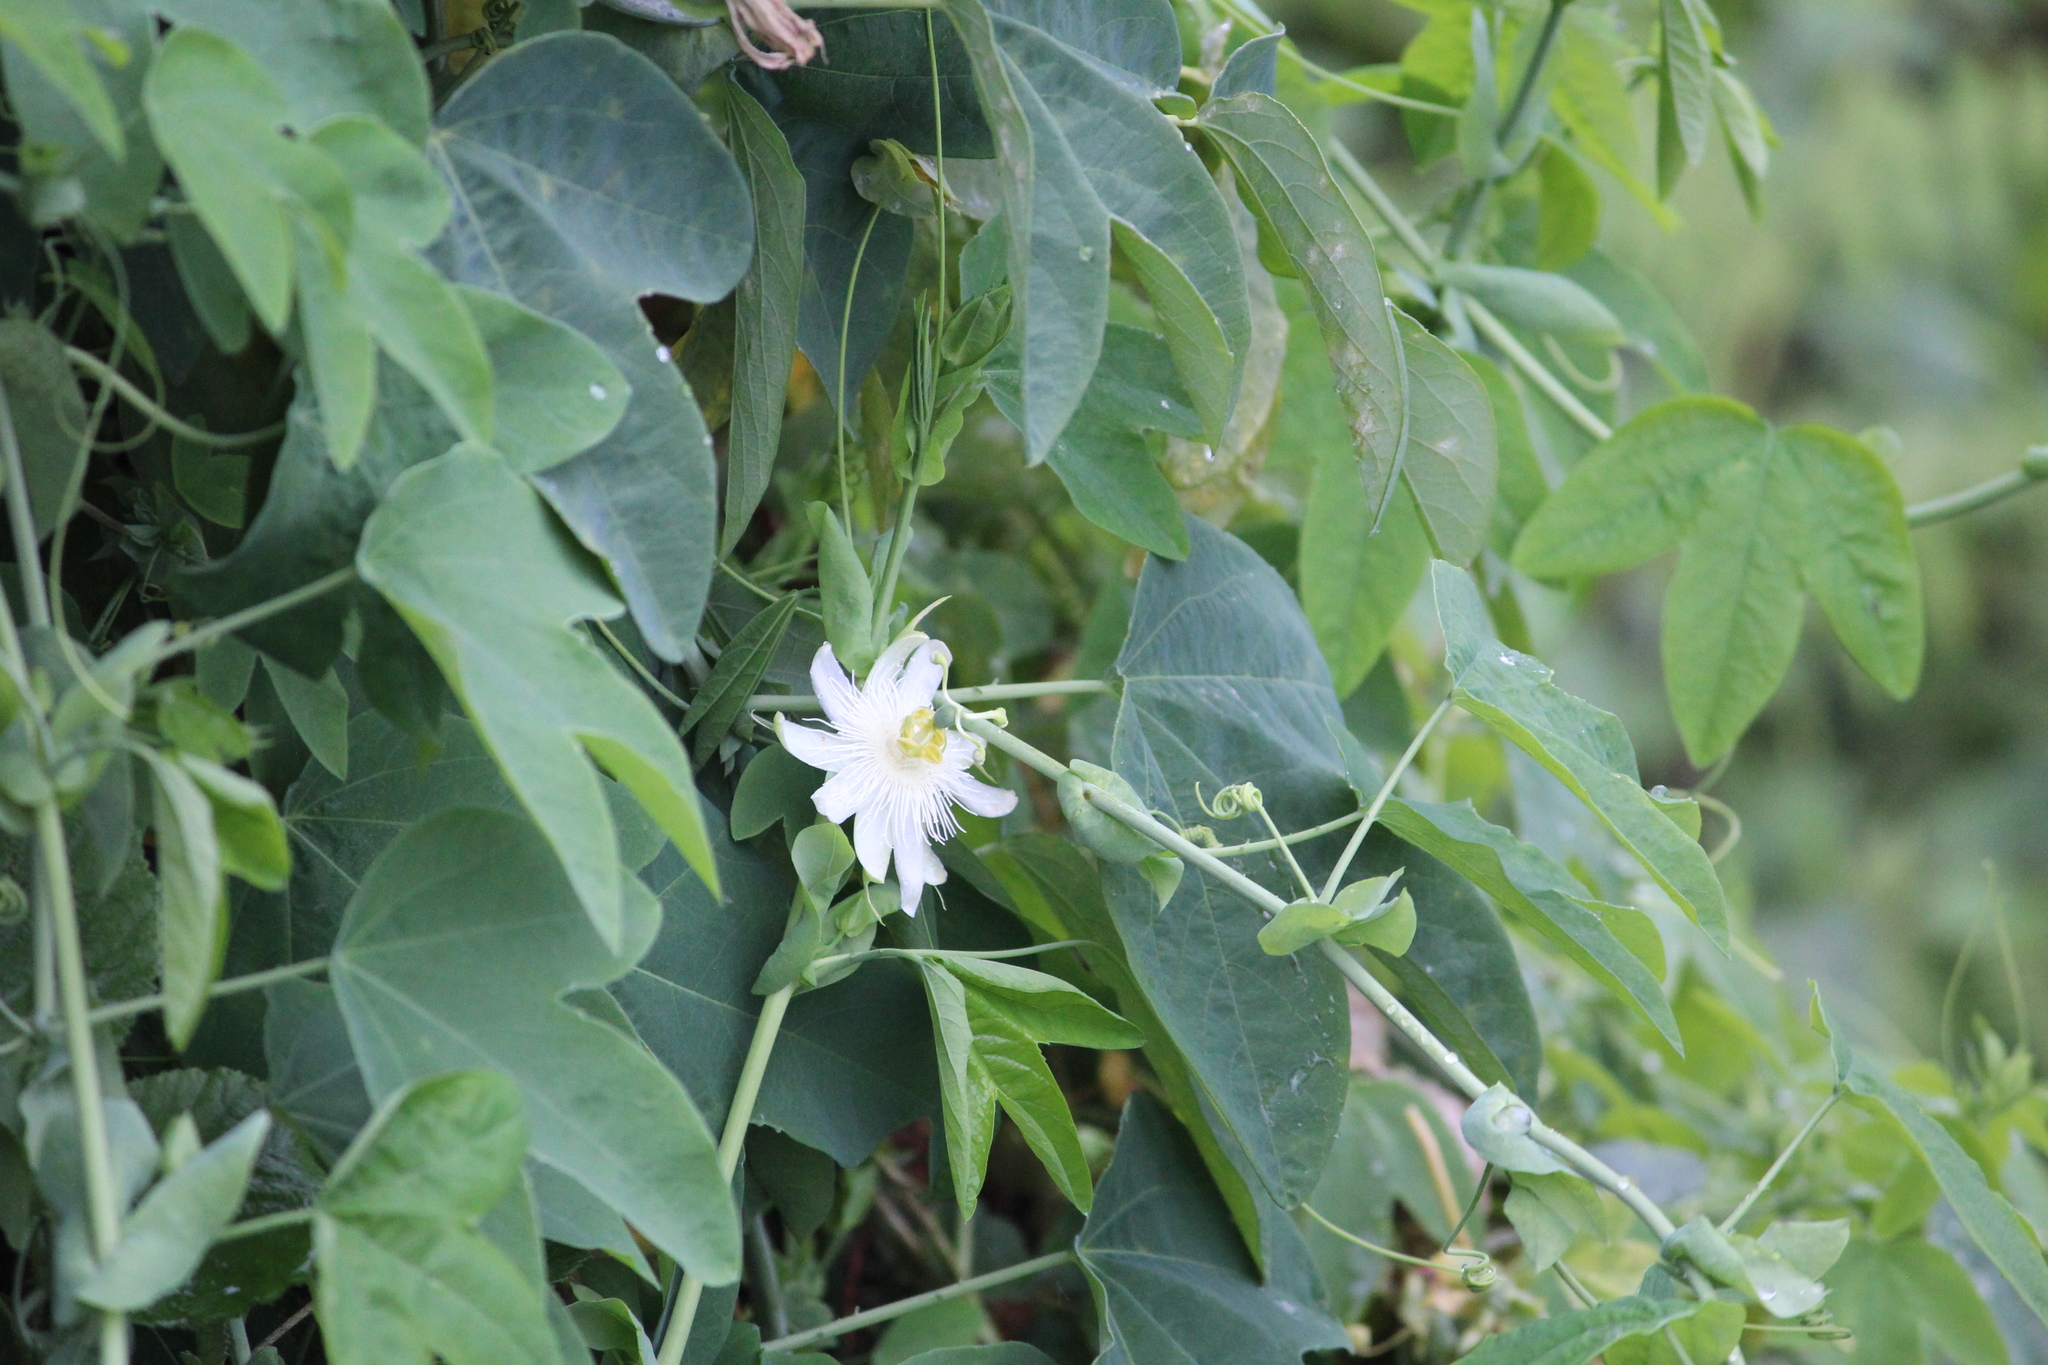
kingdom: Plantae
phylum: Tracheophyta
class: Magnoliopsida
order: Malpighiales
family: Passifloraceae
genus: Passiflora
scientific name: Passiflora subpeltata
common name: White passionflower
